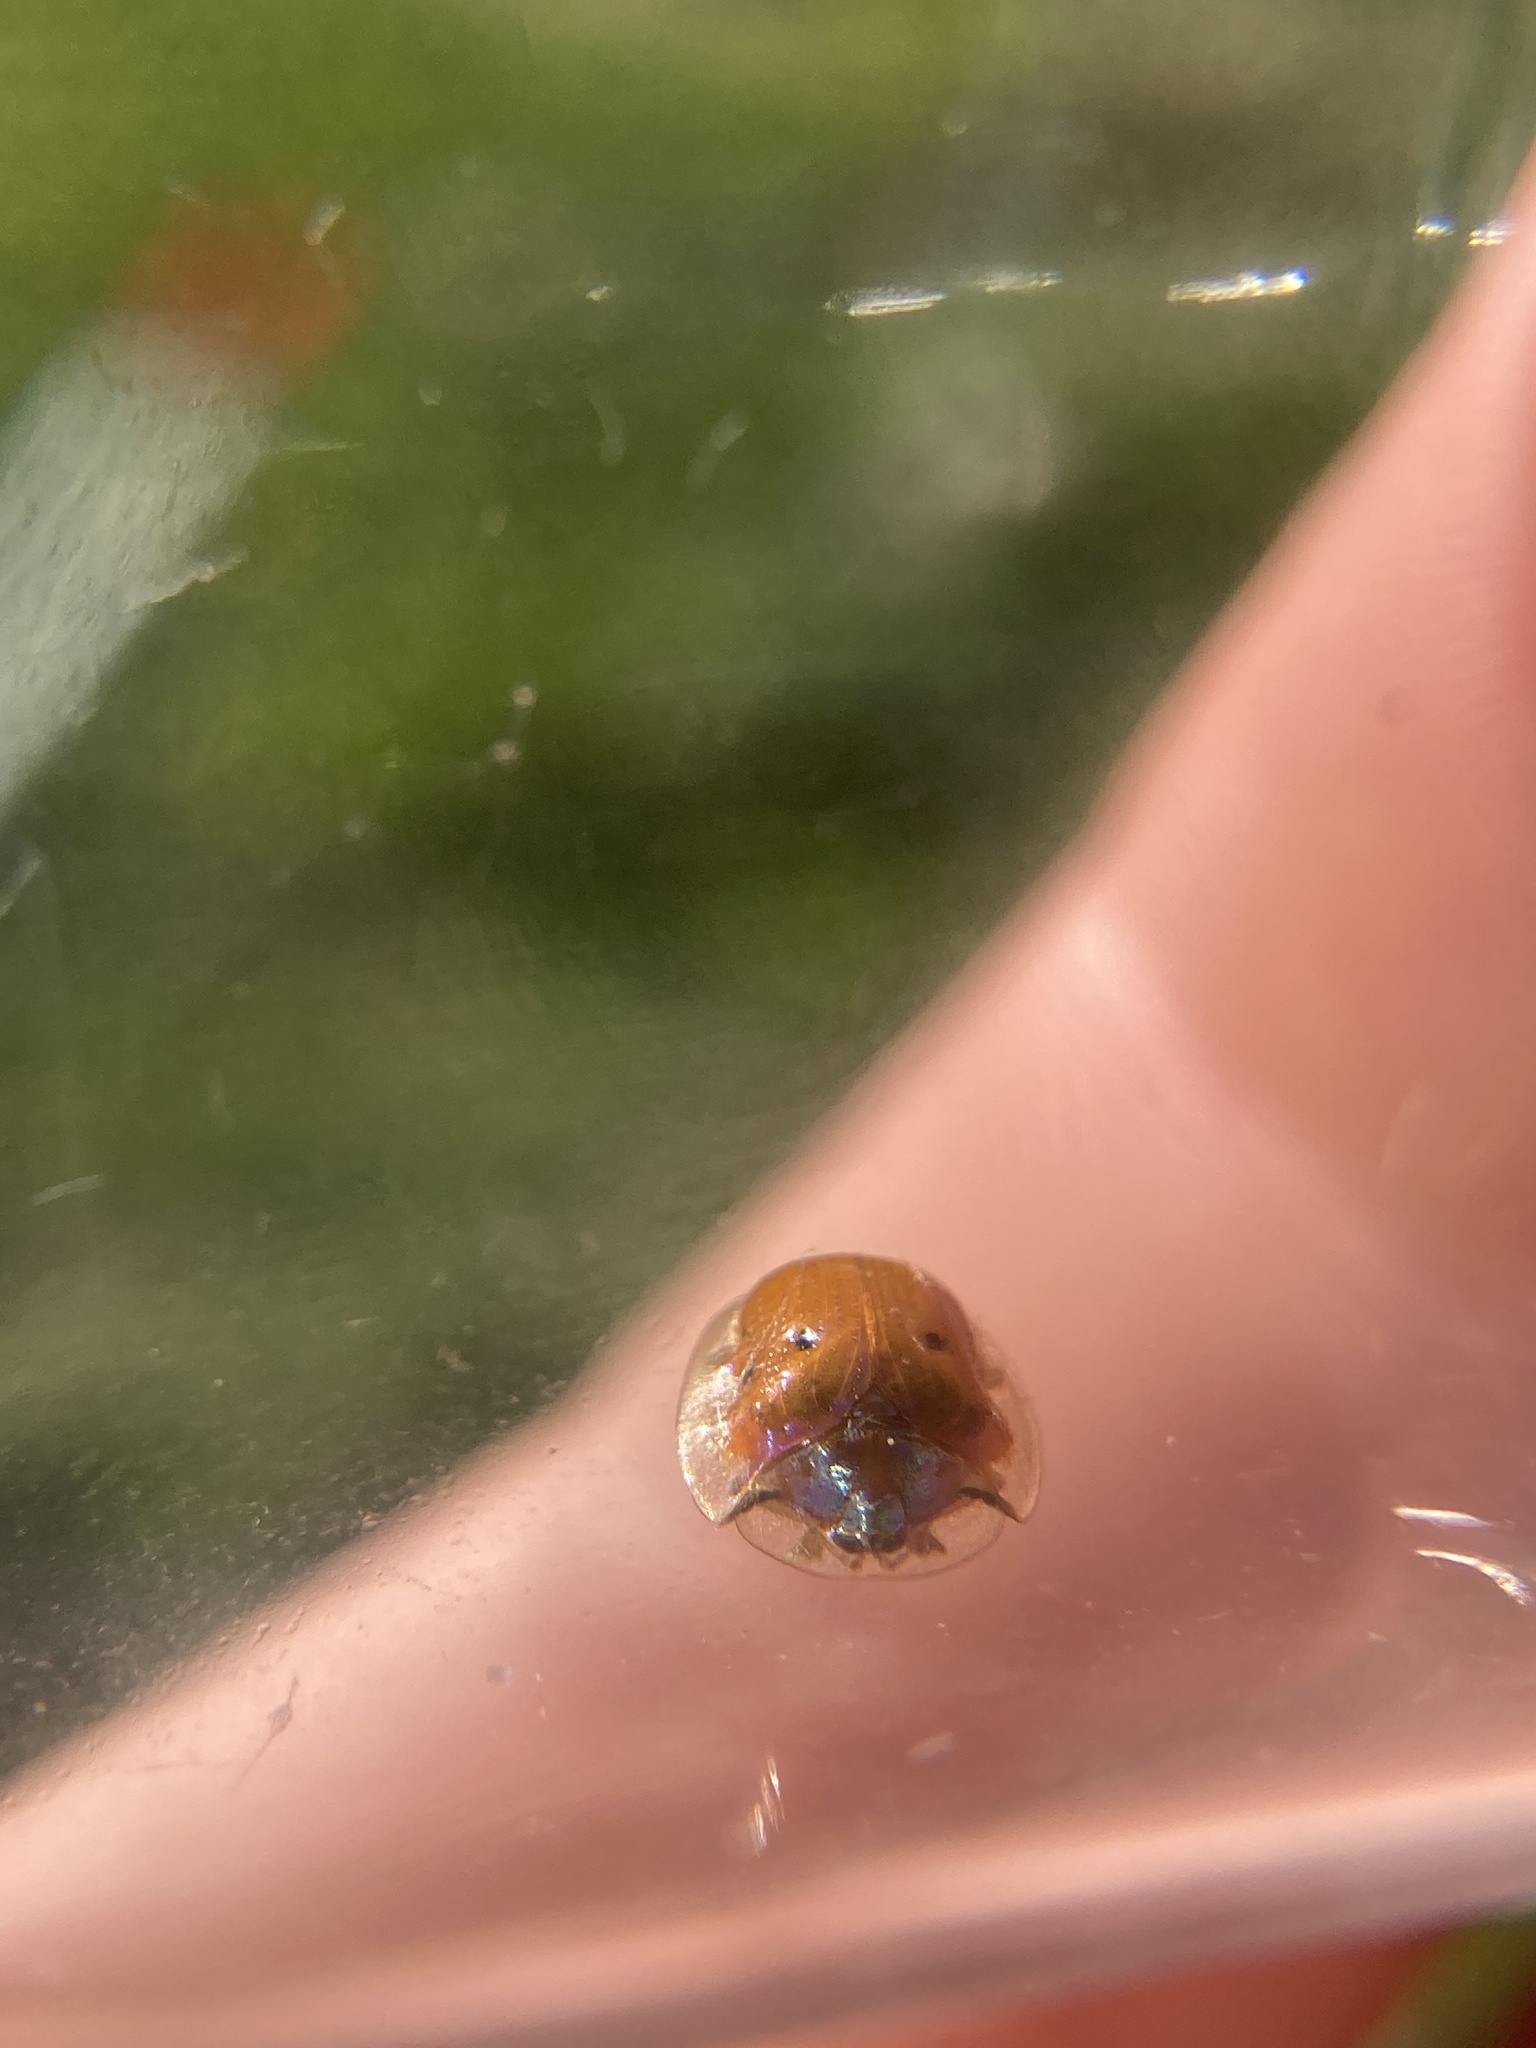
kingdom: Animalia
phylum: Arthropoda
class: Insecta
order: Coleoptera
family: Chrysomelidae
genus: Charidotella
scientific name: Charidotella sexpunctata
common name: Golden tortoise beetle
